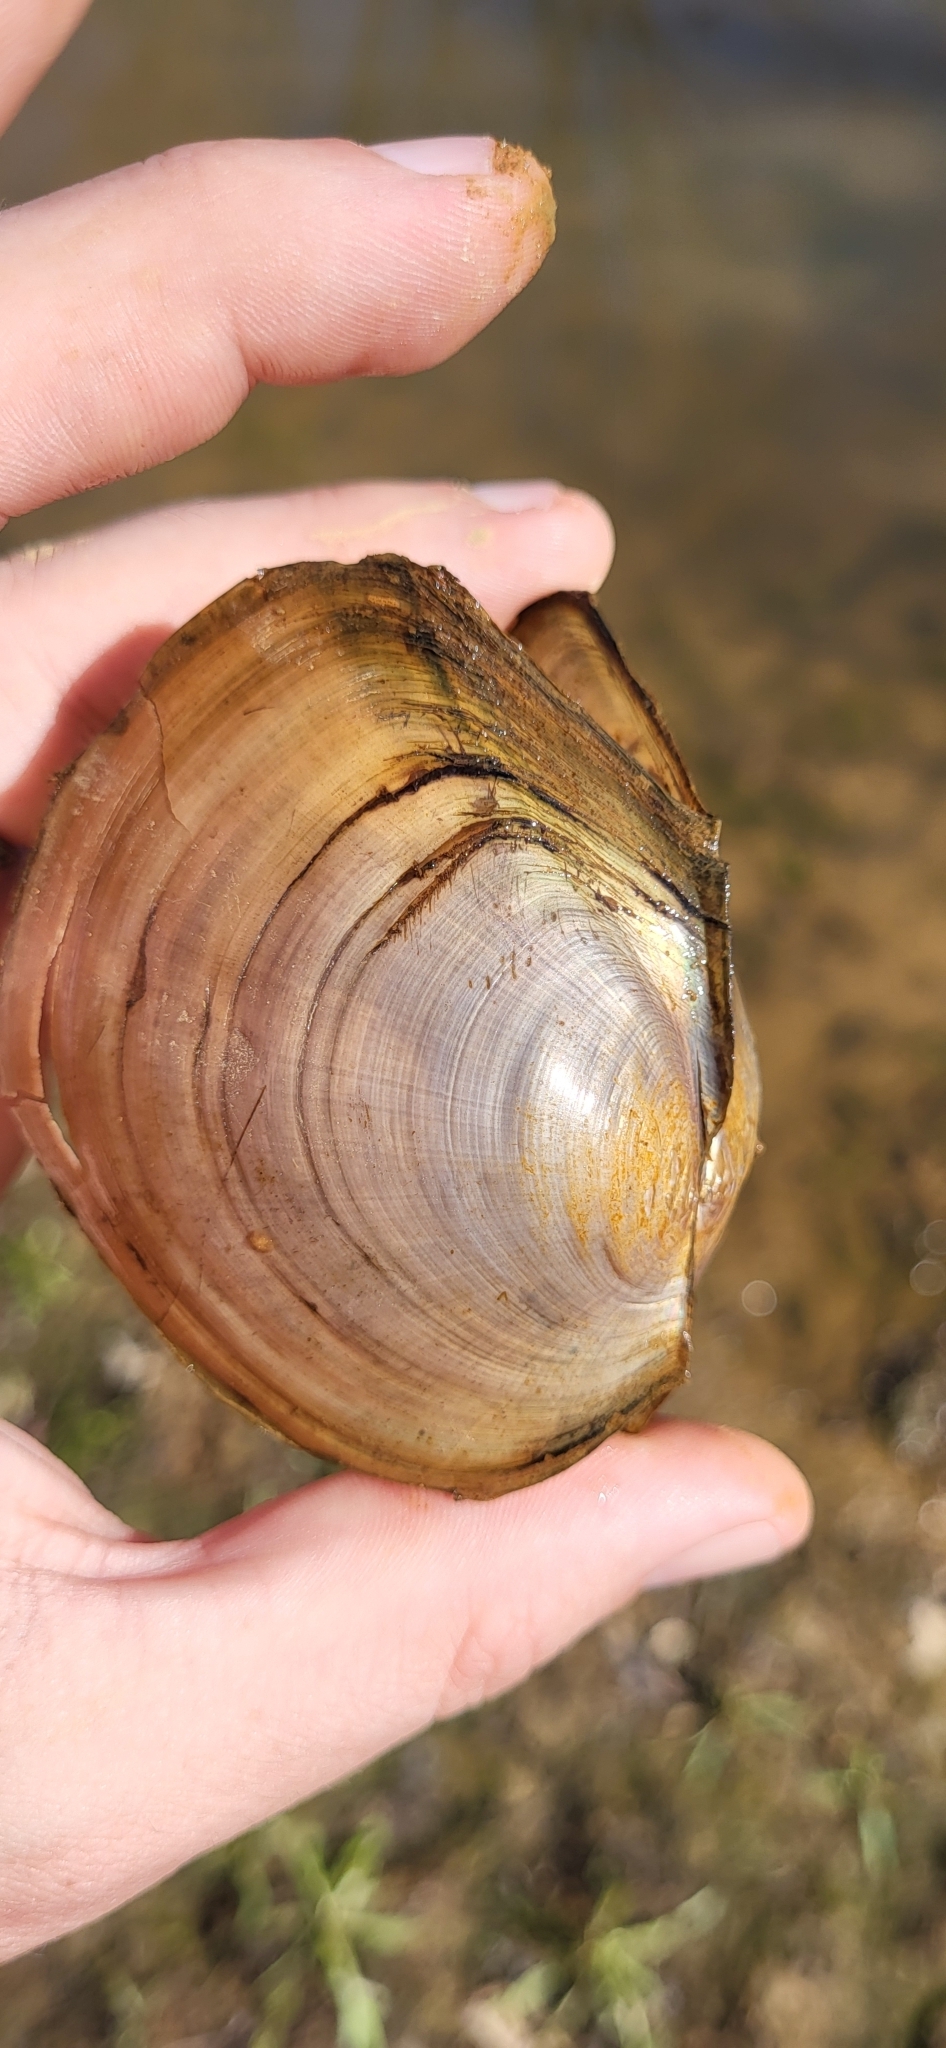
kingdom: Animalia
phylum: Mollusca
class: Bivalvia
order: Unionida
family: Unionidae
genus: Utterbackiana
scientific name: Utterbackiana suborbiculata
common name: Flat floater
